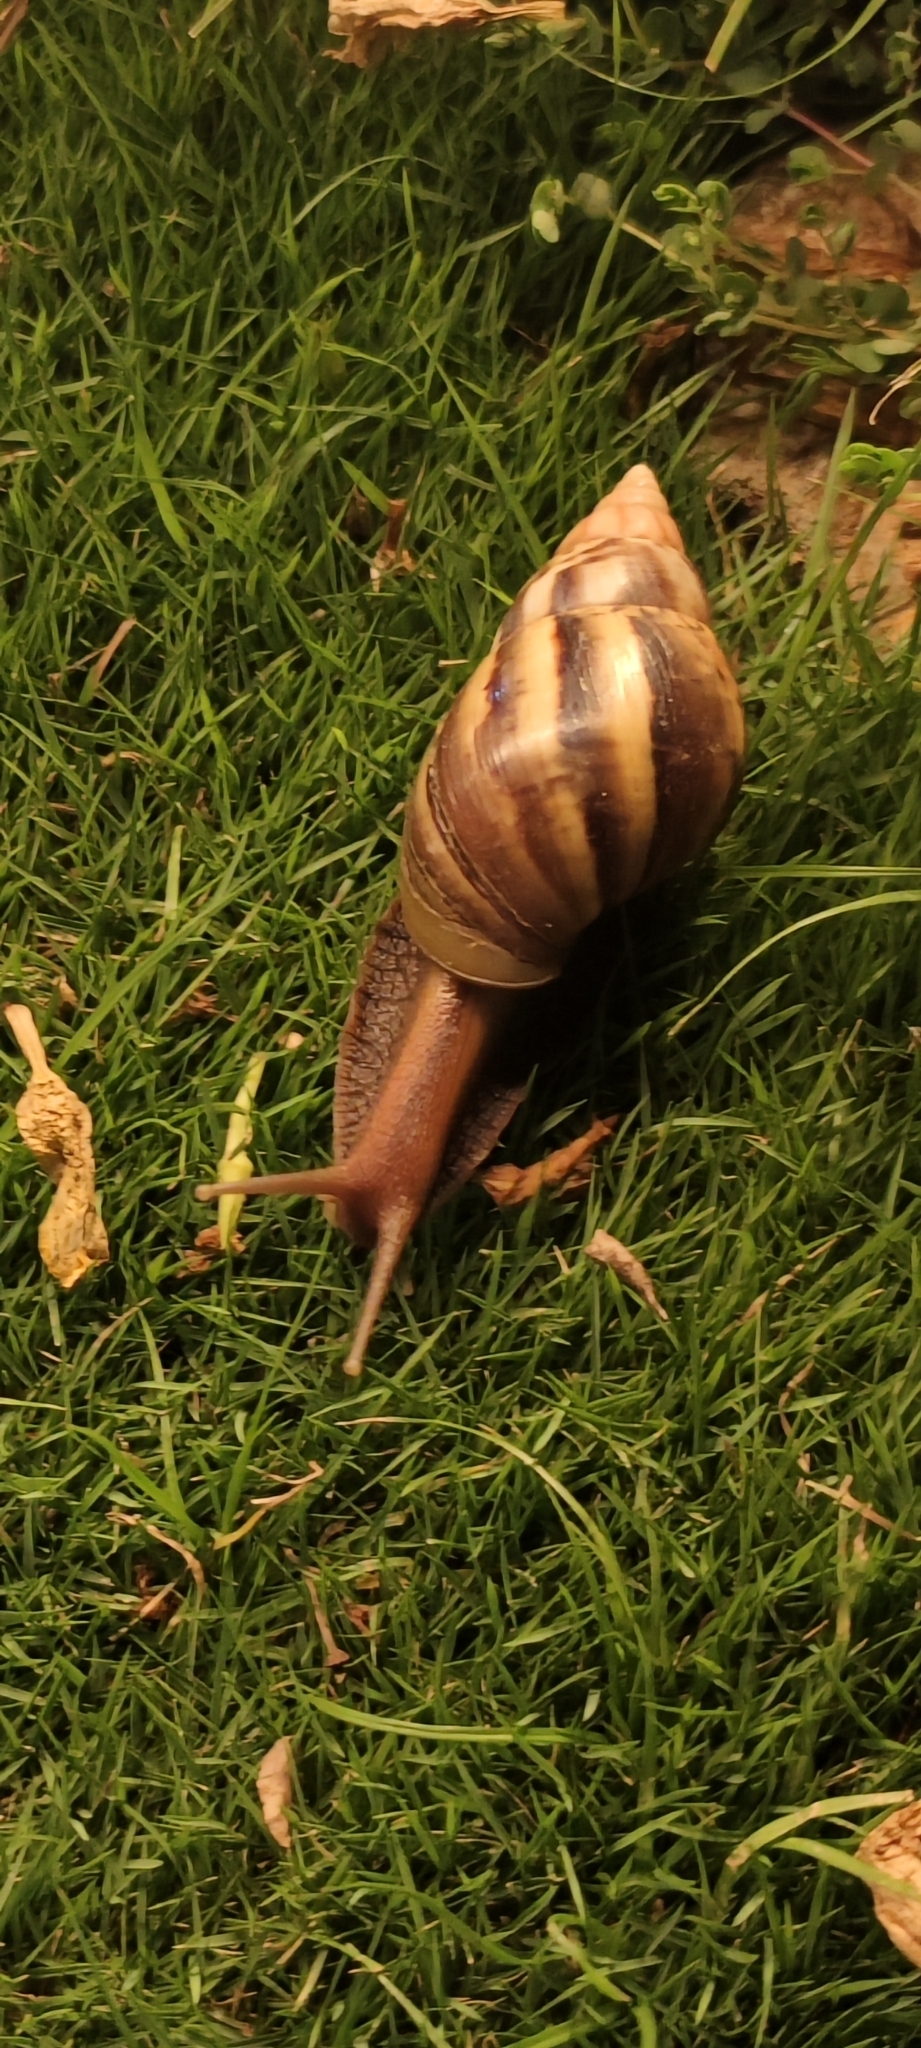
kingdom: Animalia
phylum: Mollusca
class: Gastropoda
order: Stylommatophora
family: Achatinidae
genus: Lissachatina
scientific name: Lissachatina fulica
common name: Giant african snail
